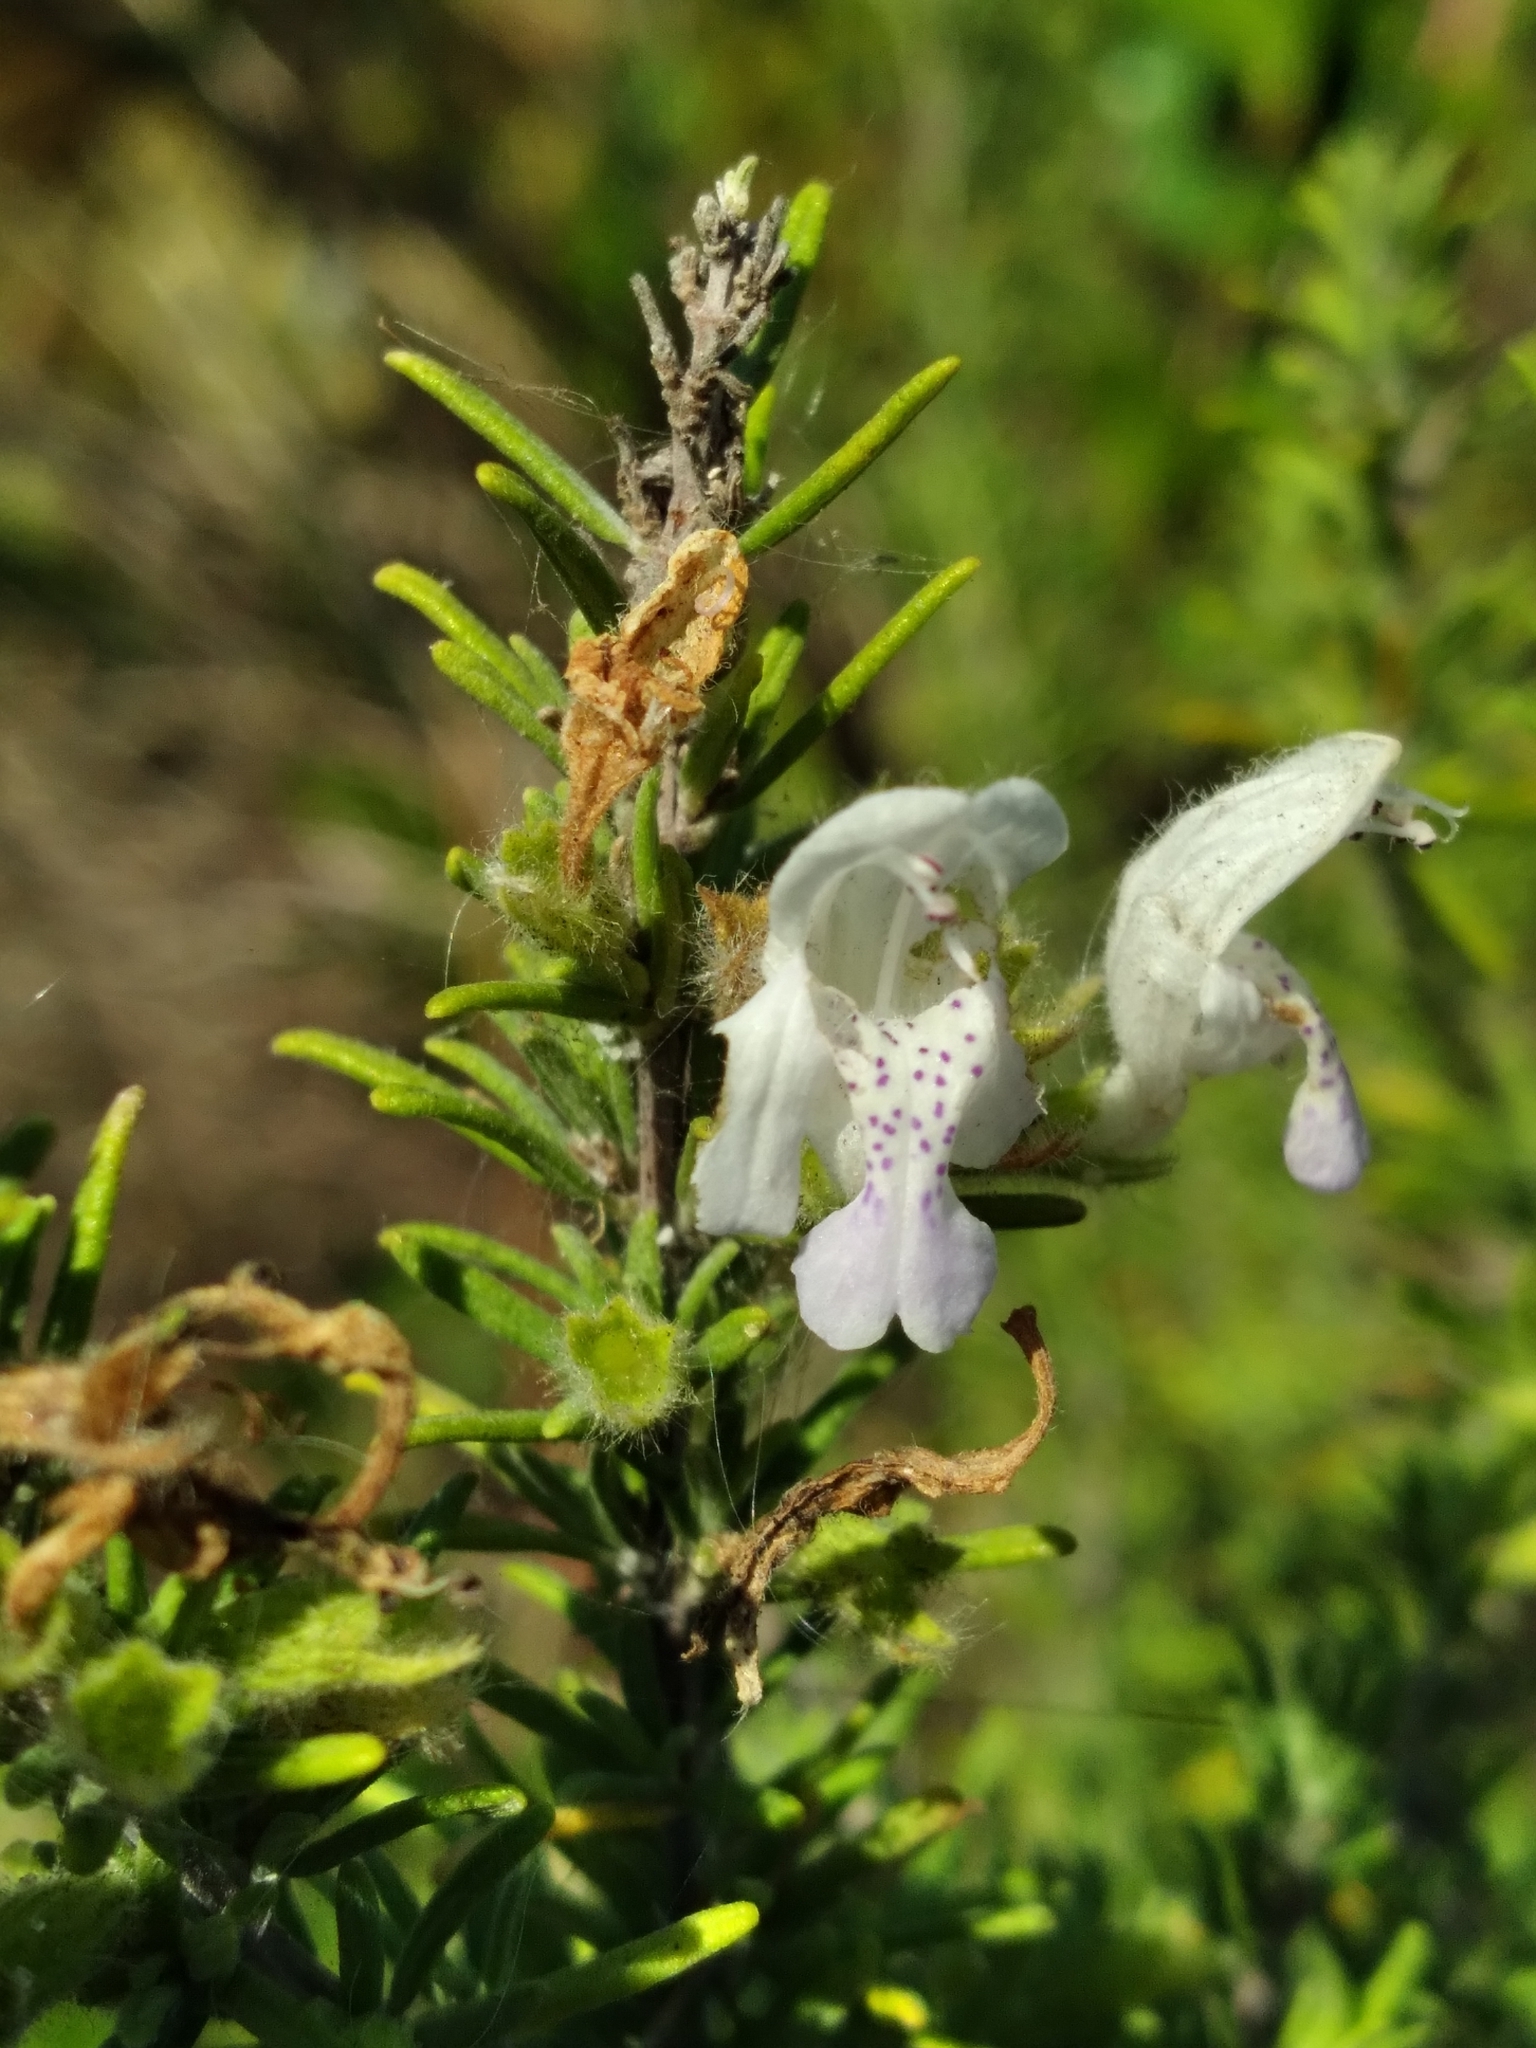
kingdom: Plantae
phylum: Tracheophyta
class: Magnoliopsida
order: Lamiales
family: Lamiaceae
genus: Conradina
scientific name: Conradina canescens
